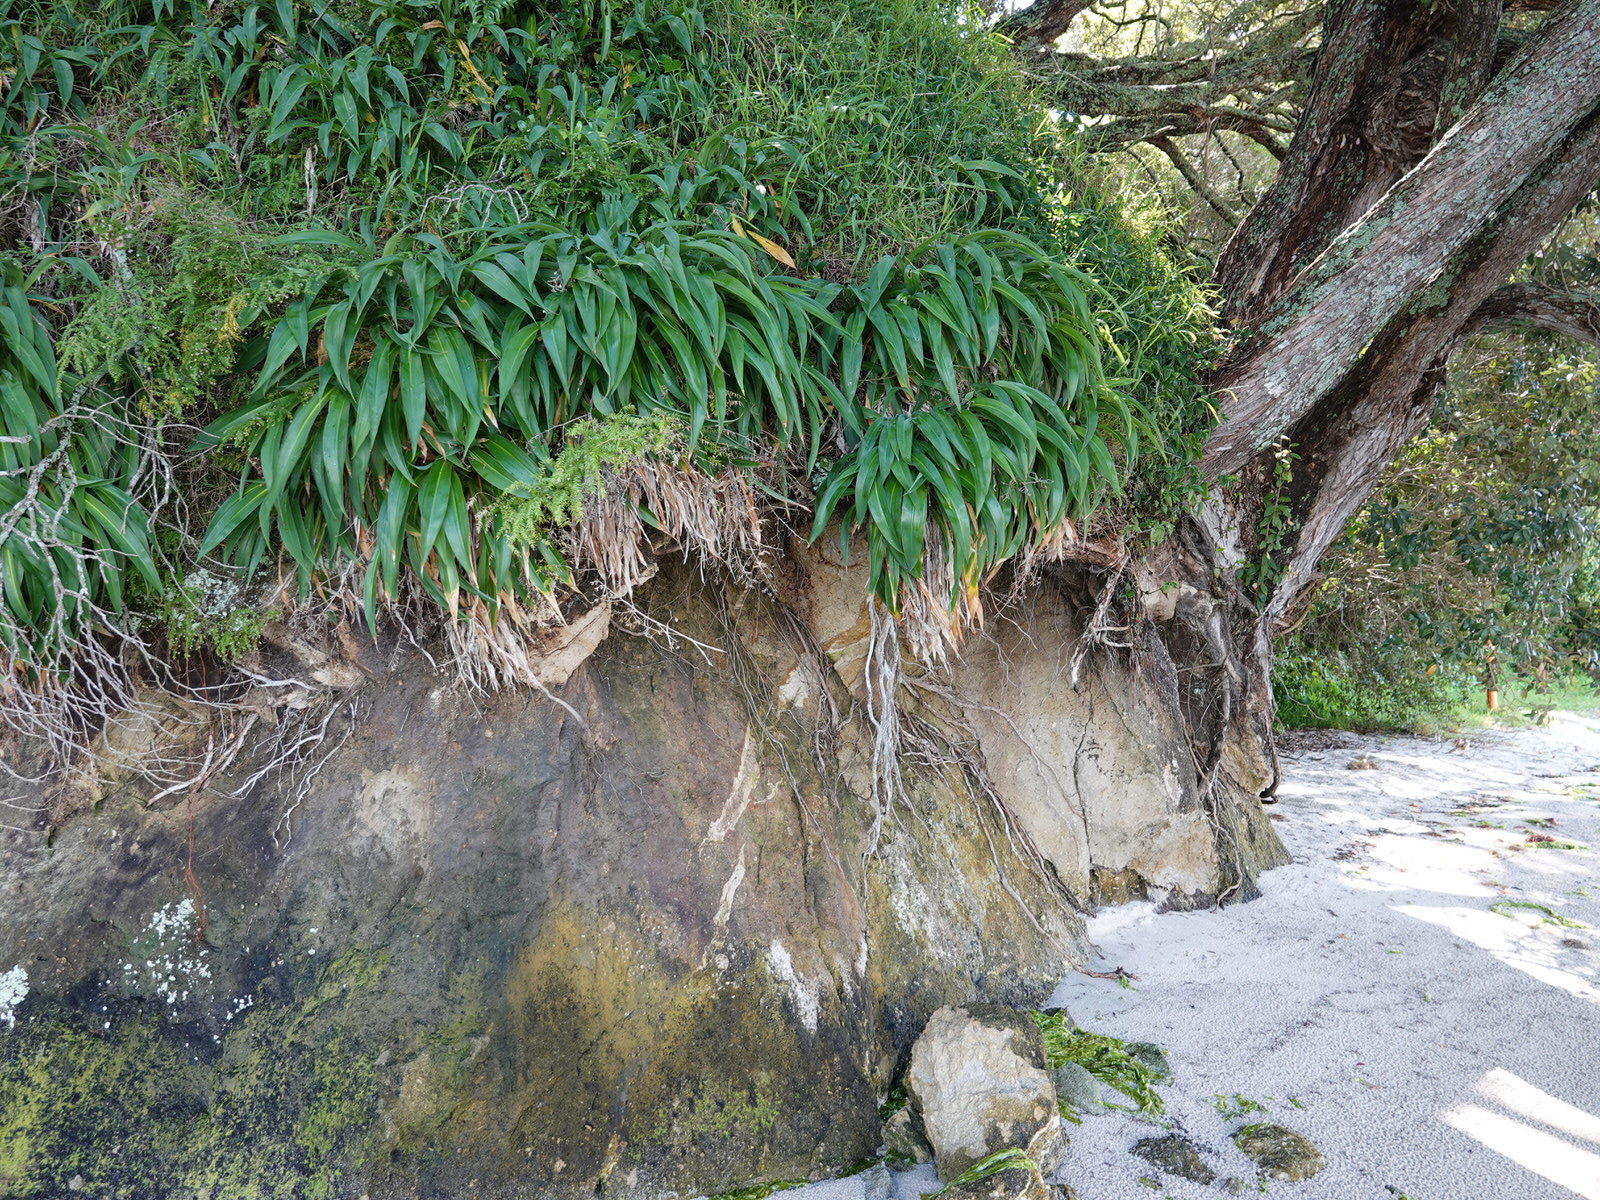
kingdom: Plantae
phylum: Tracheophyta
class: Liliopsida
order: Asparagales
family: Asparagaceae
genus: Asparagus
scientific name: Asparagus scandens
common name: Asparagus-fern
